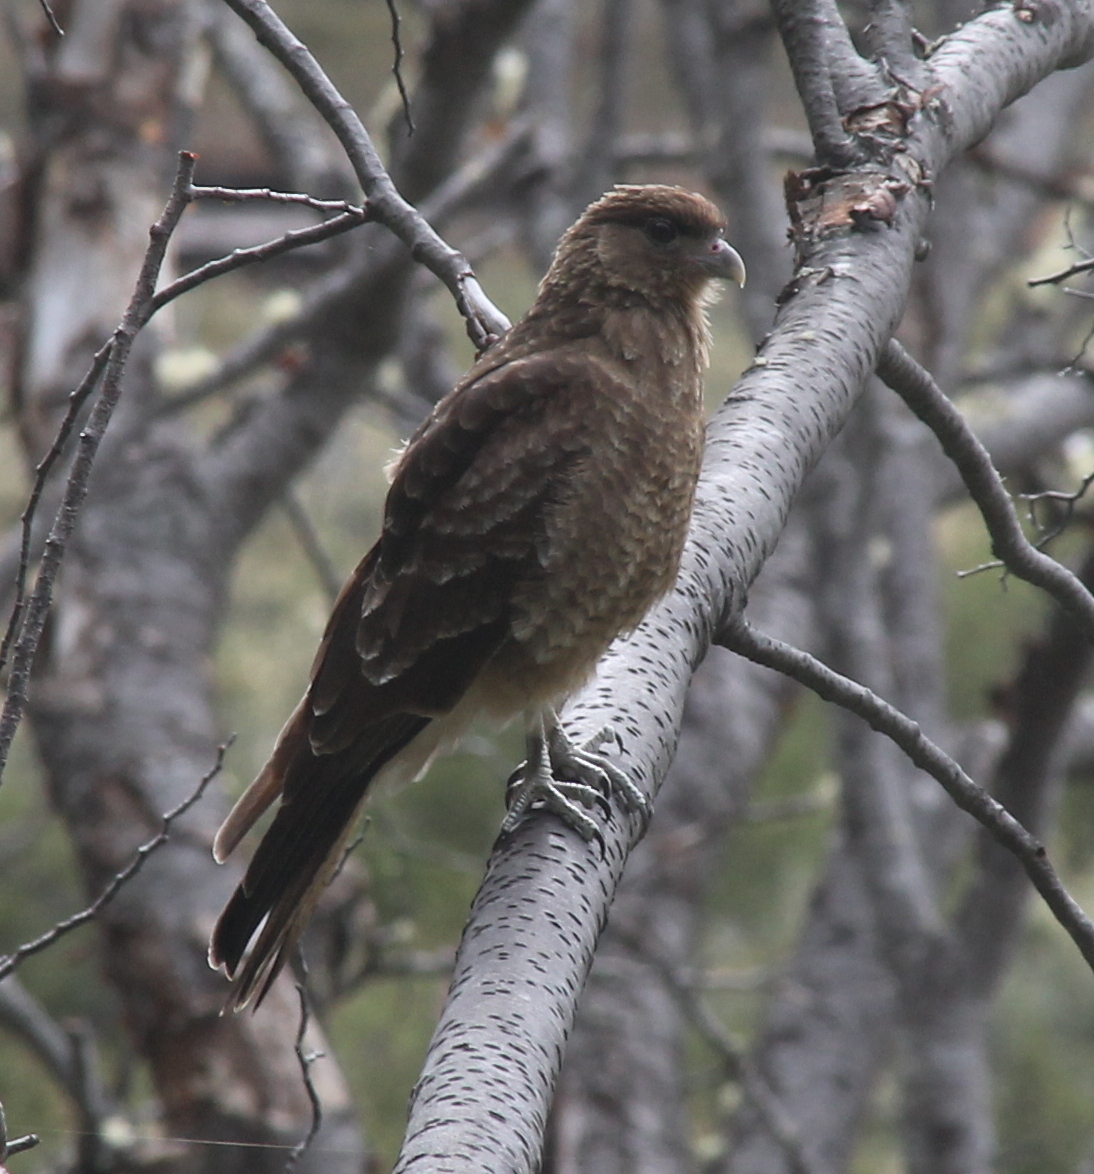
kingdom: Animalia
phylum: Chordata
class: Aves
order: Falconiformes
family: Falconidae
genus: Daptrius
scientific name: Daptrius
